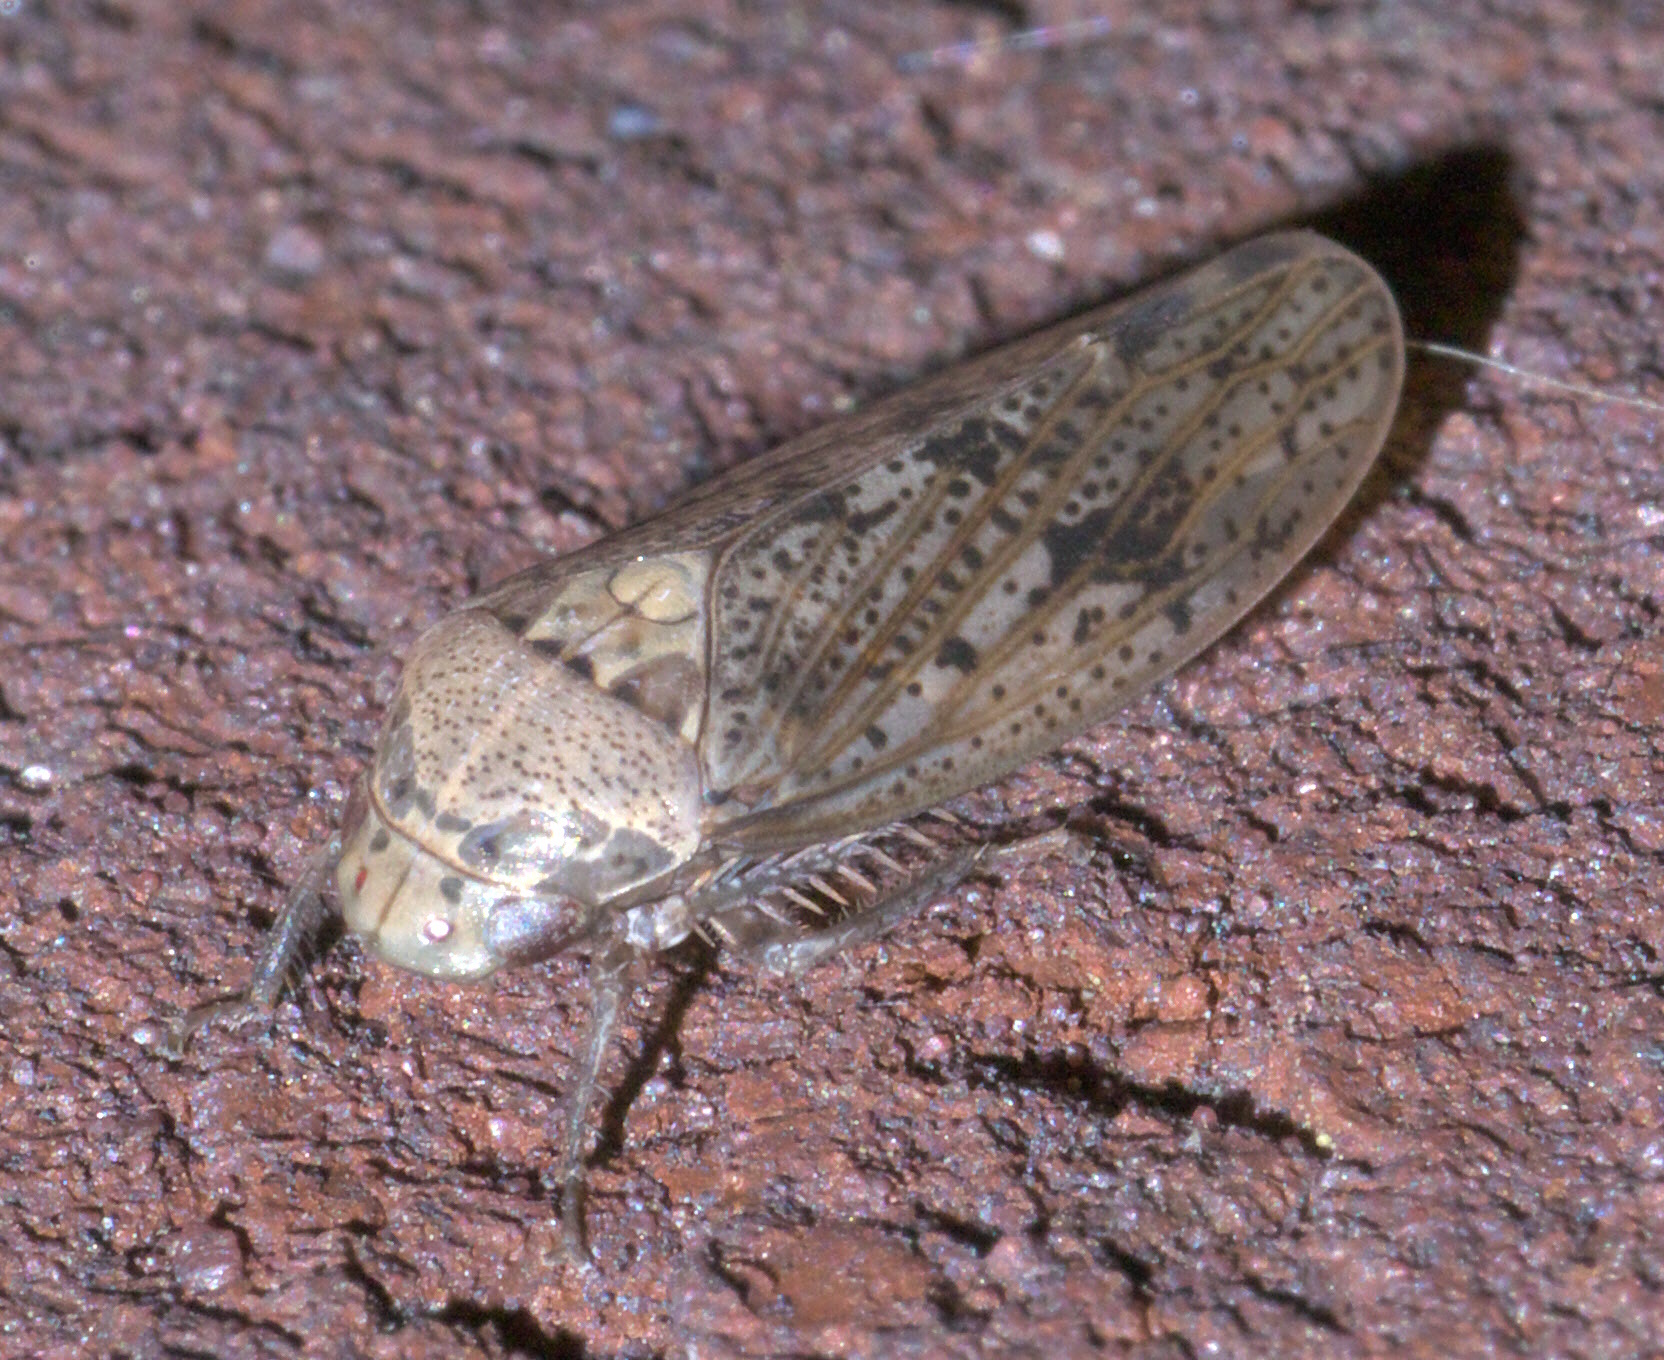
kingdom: Animalia
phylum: Arthropoda
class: Insecta
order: Hemiptera
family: Cicadellidae
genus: Ponana
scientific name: Ponana puncticollis
